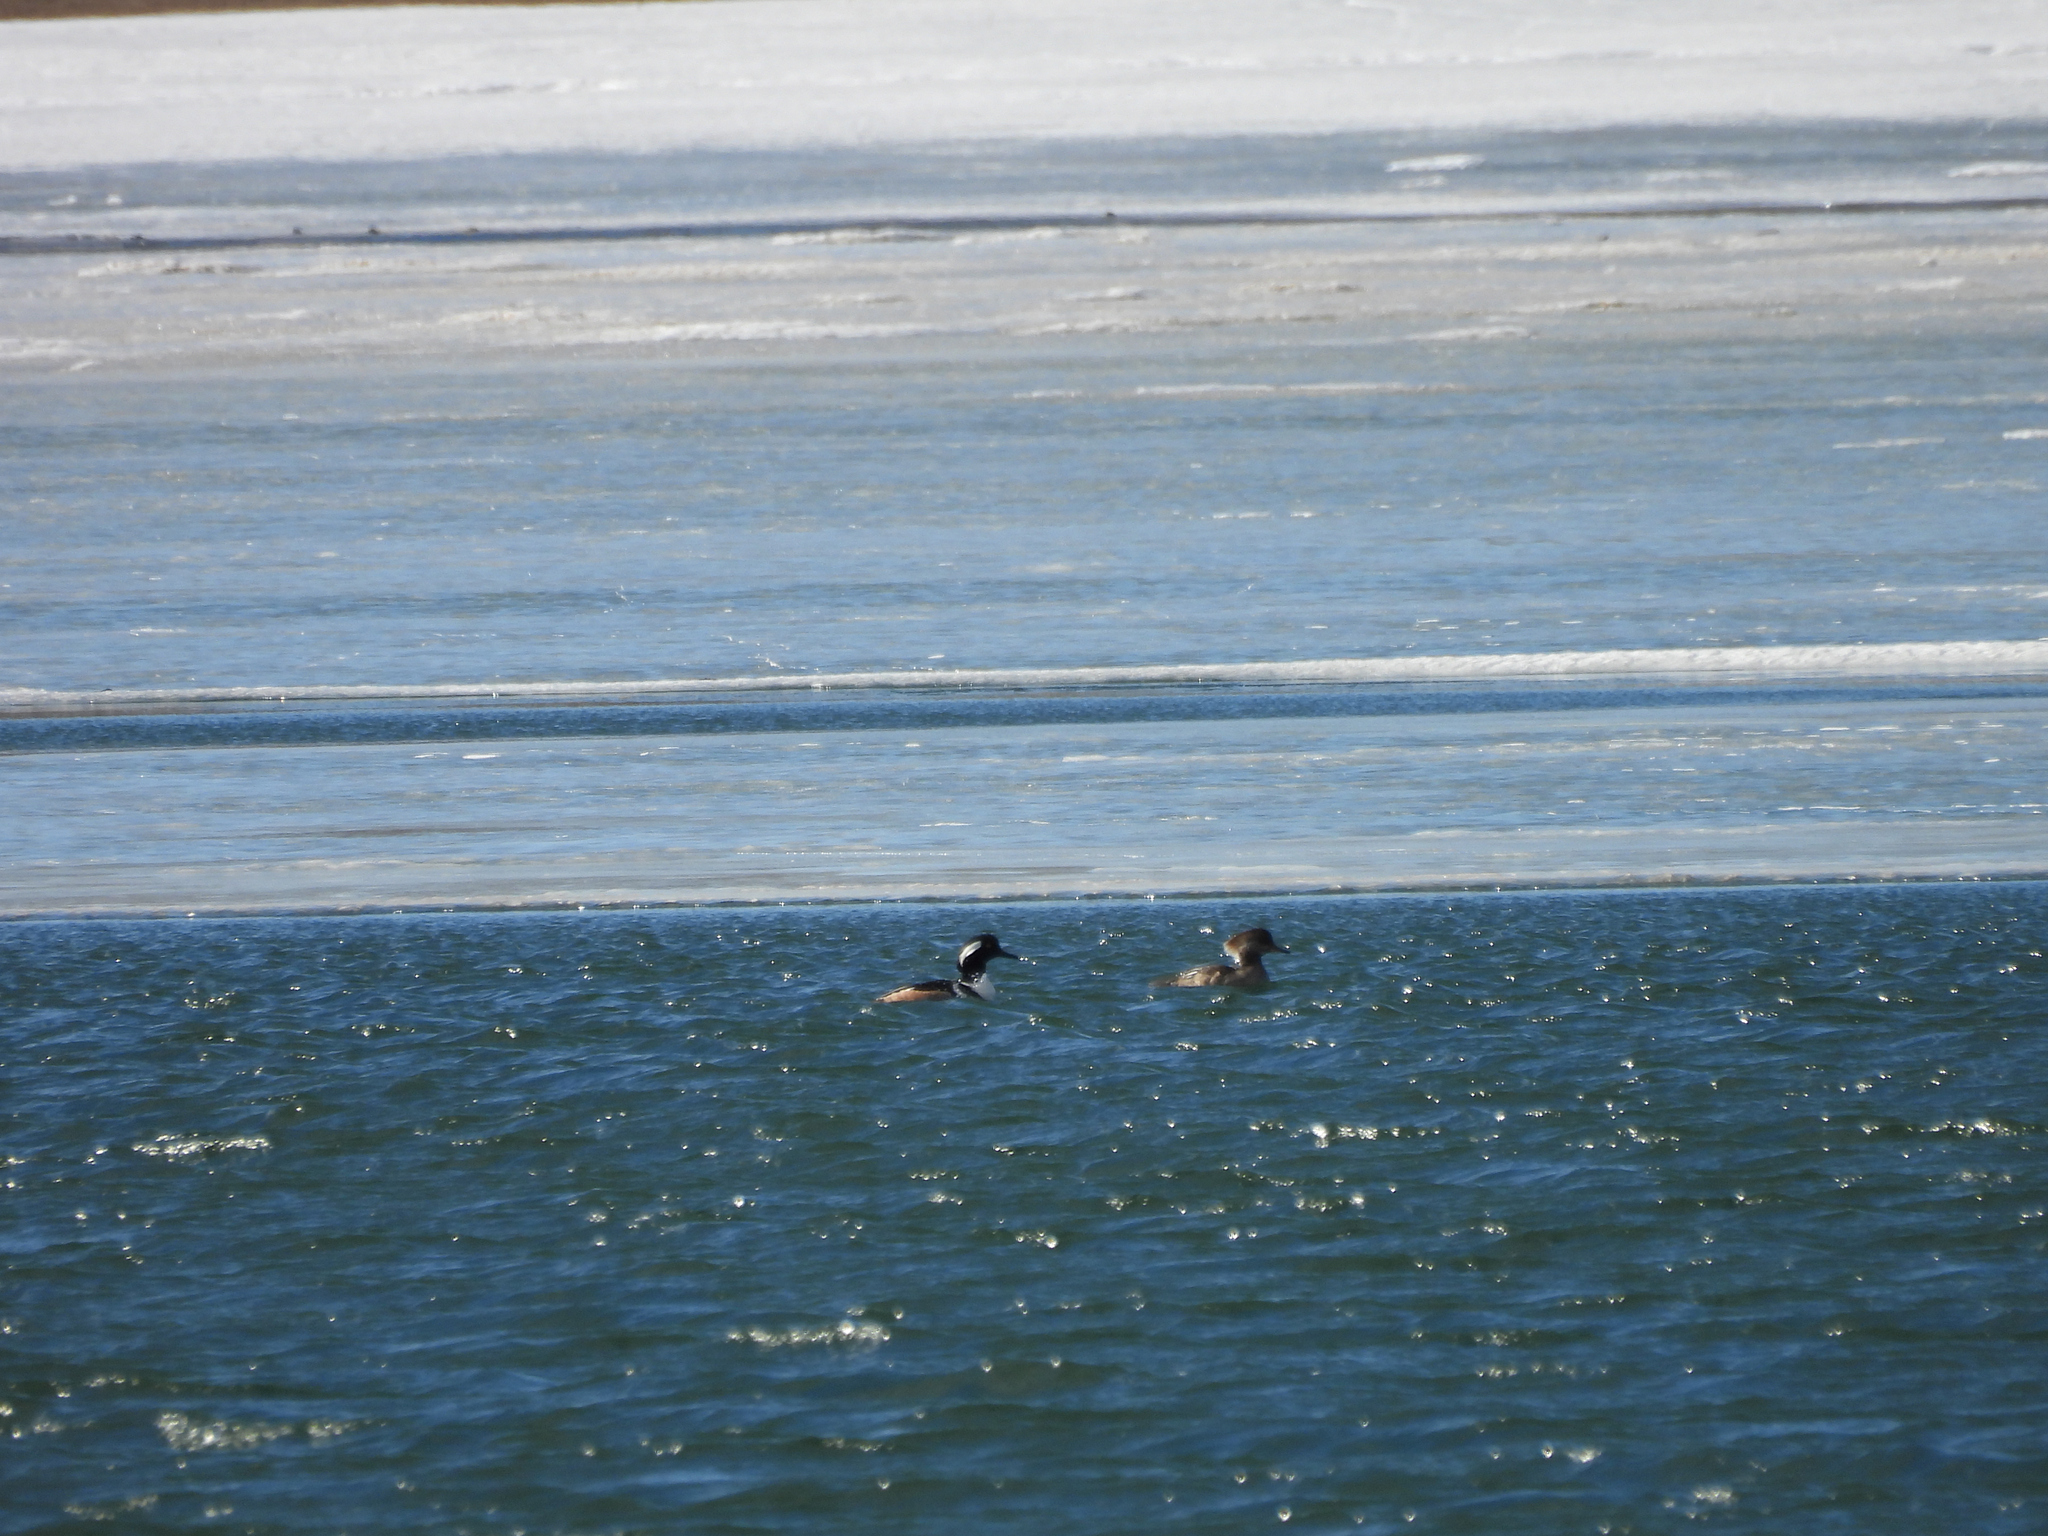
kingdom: Animalia
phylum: Chordata
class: Aves
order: Anseriformes
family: Anatidae
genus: Lophodytes
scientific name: Lophodytes cucullatus
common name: Hooded merganser
